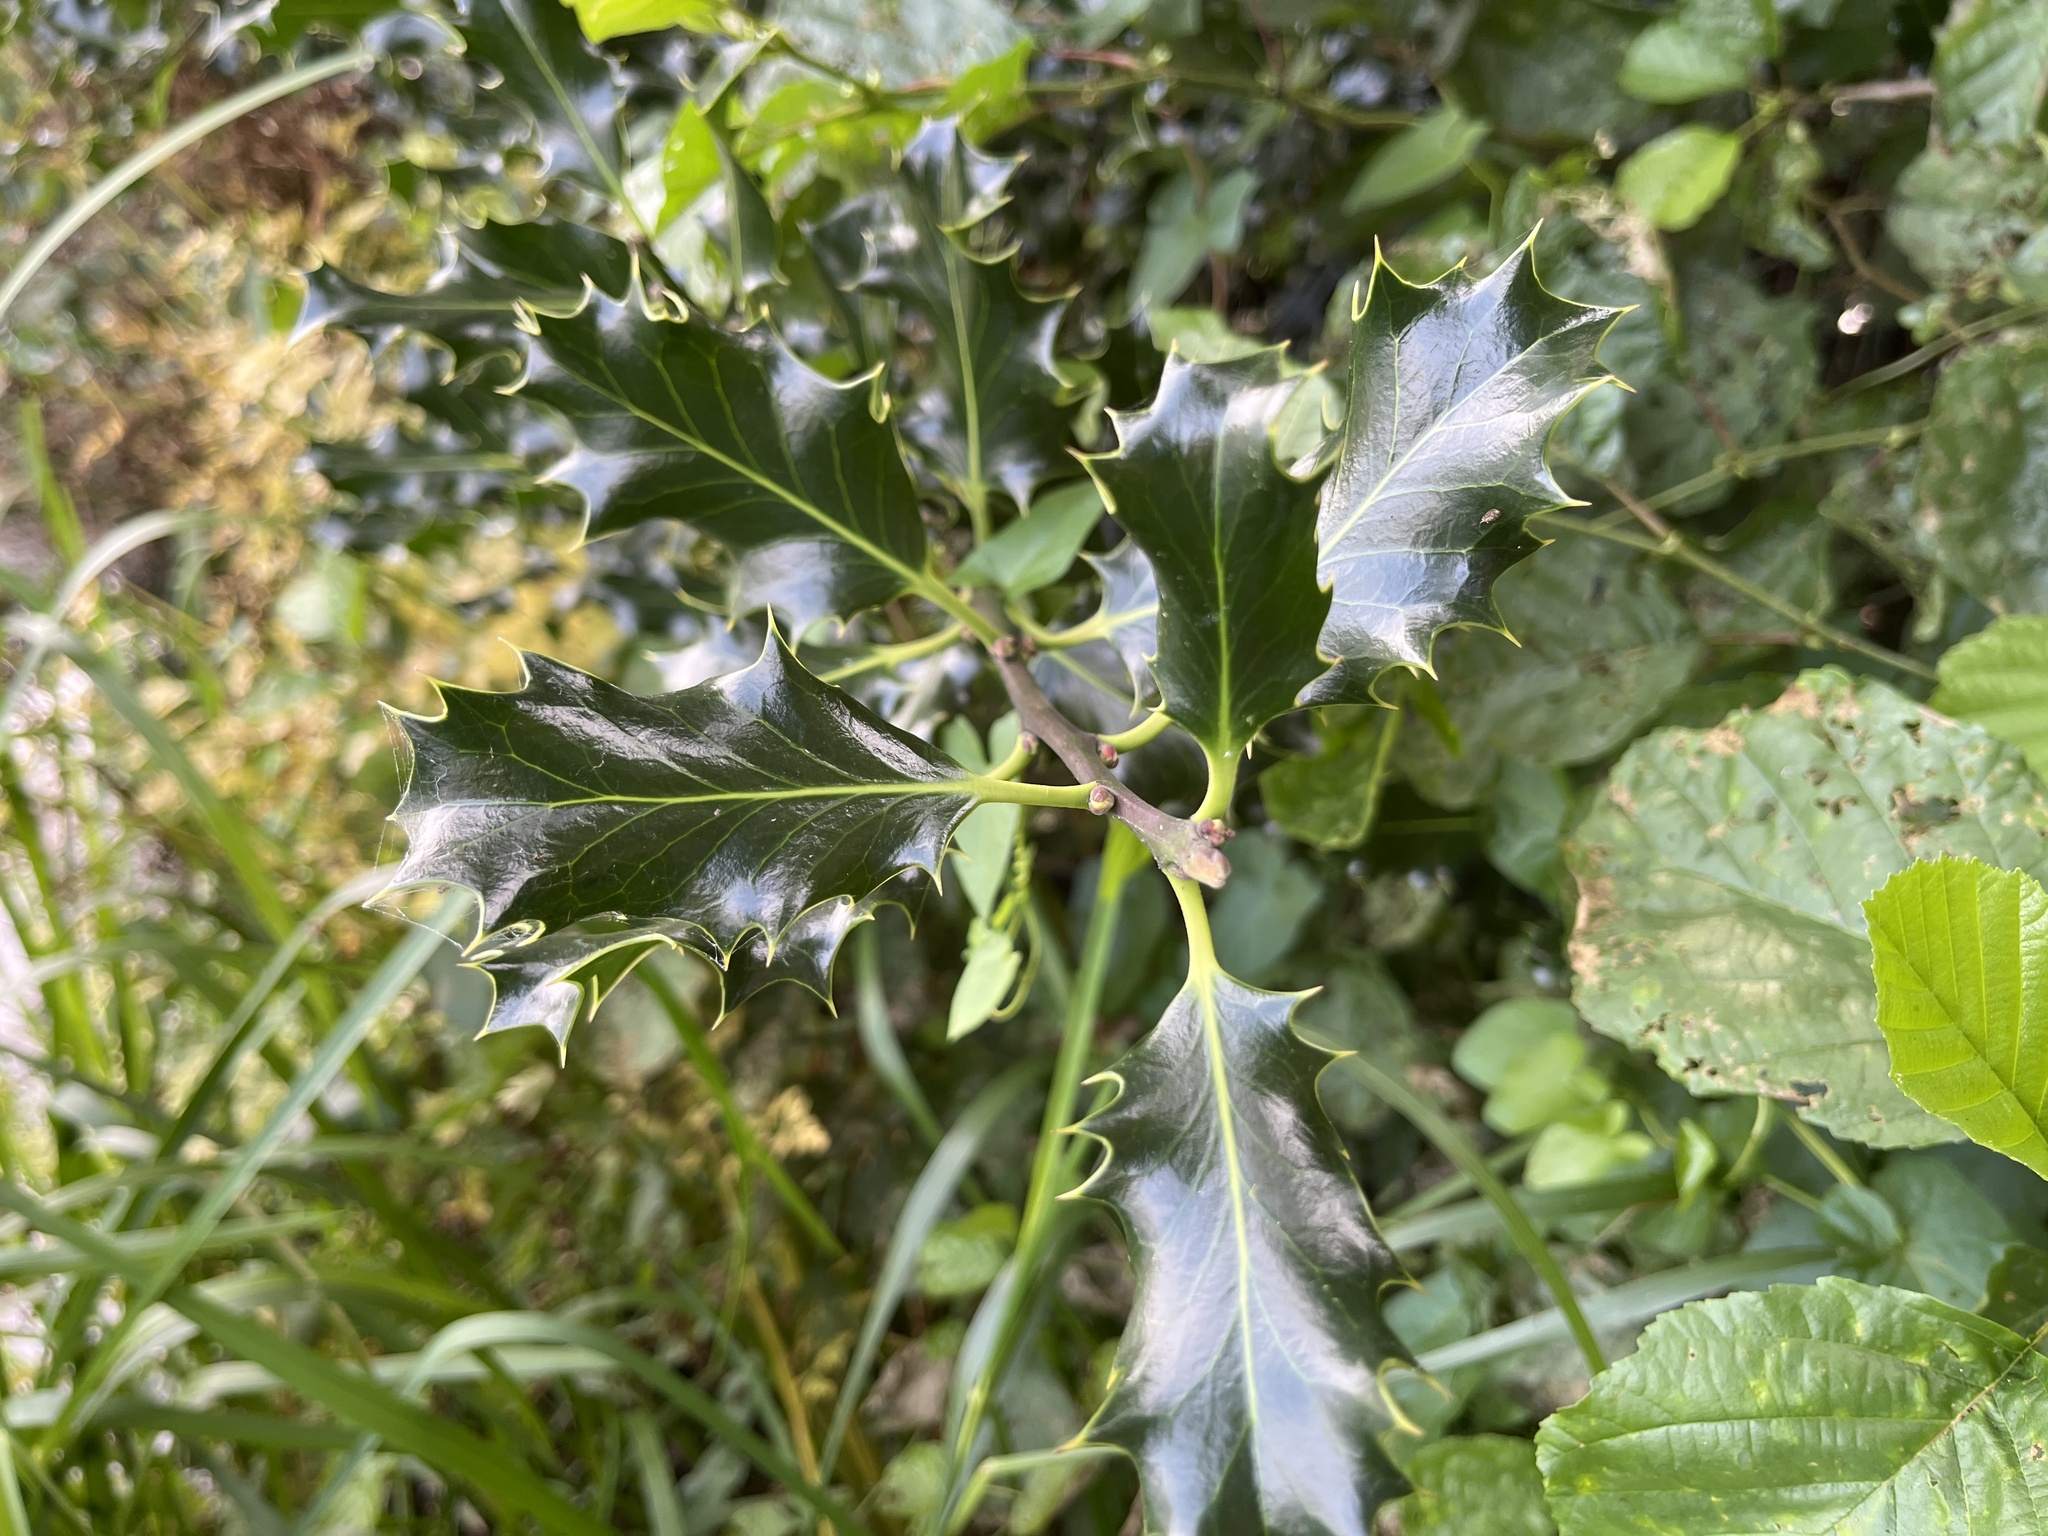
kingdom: Plantae
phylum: Tracheophyta
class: Magnoliopsida
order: Aquifoliales
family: Aquifoliaceae
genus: Ilex
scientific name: Ilex aquifolium
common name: English holly
